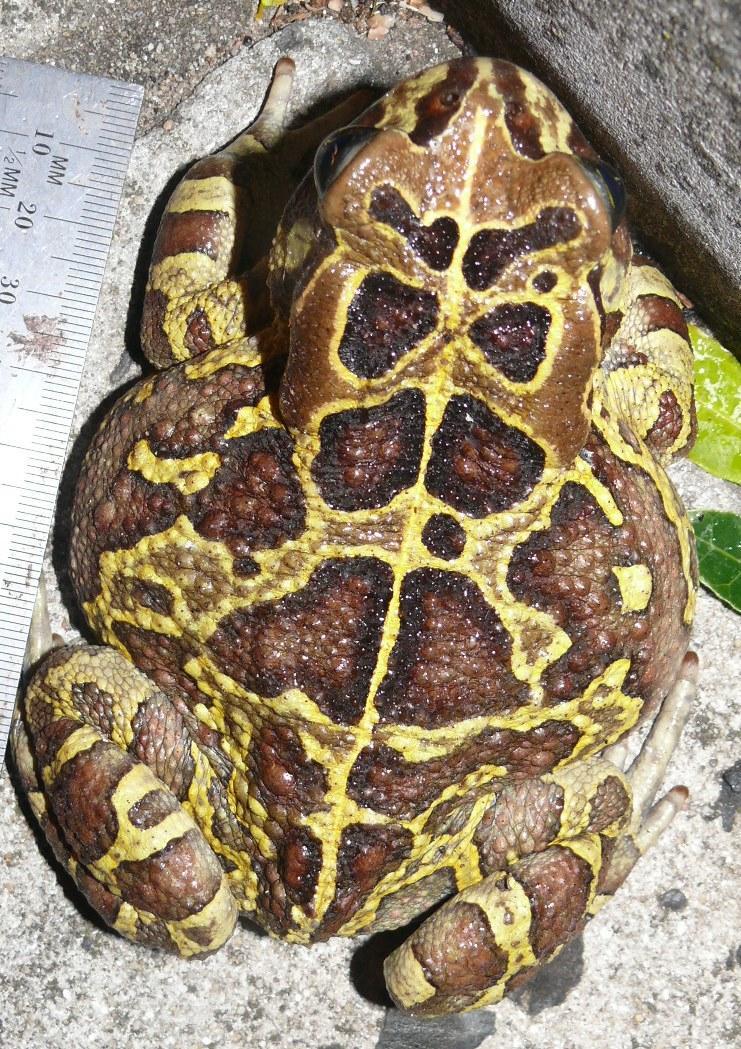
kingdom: Animalia
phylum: Chordata
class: Amphibia
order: Anura
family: Bufonidae
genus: Sclerophrys
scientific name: Sclerophrys pantherina
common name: Panther toad
